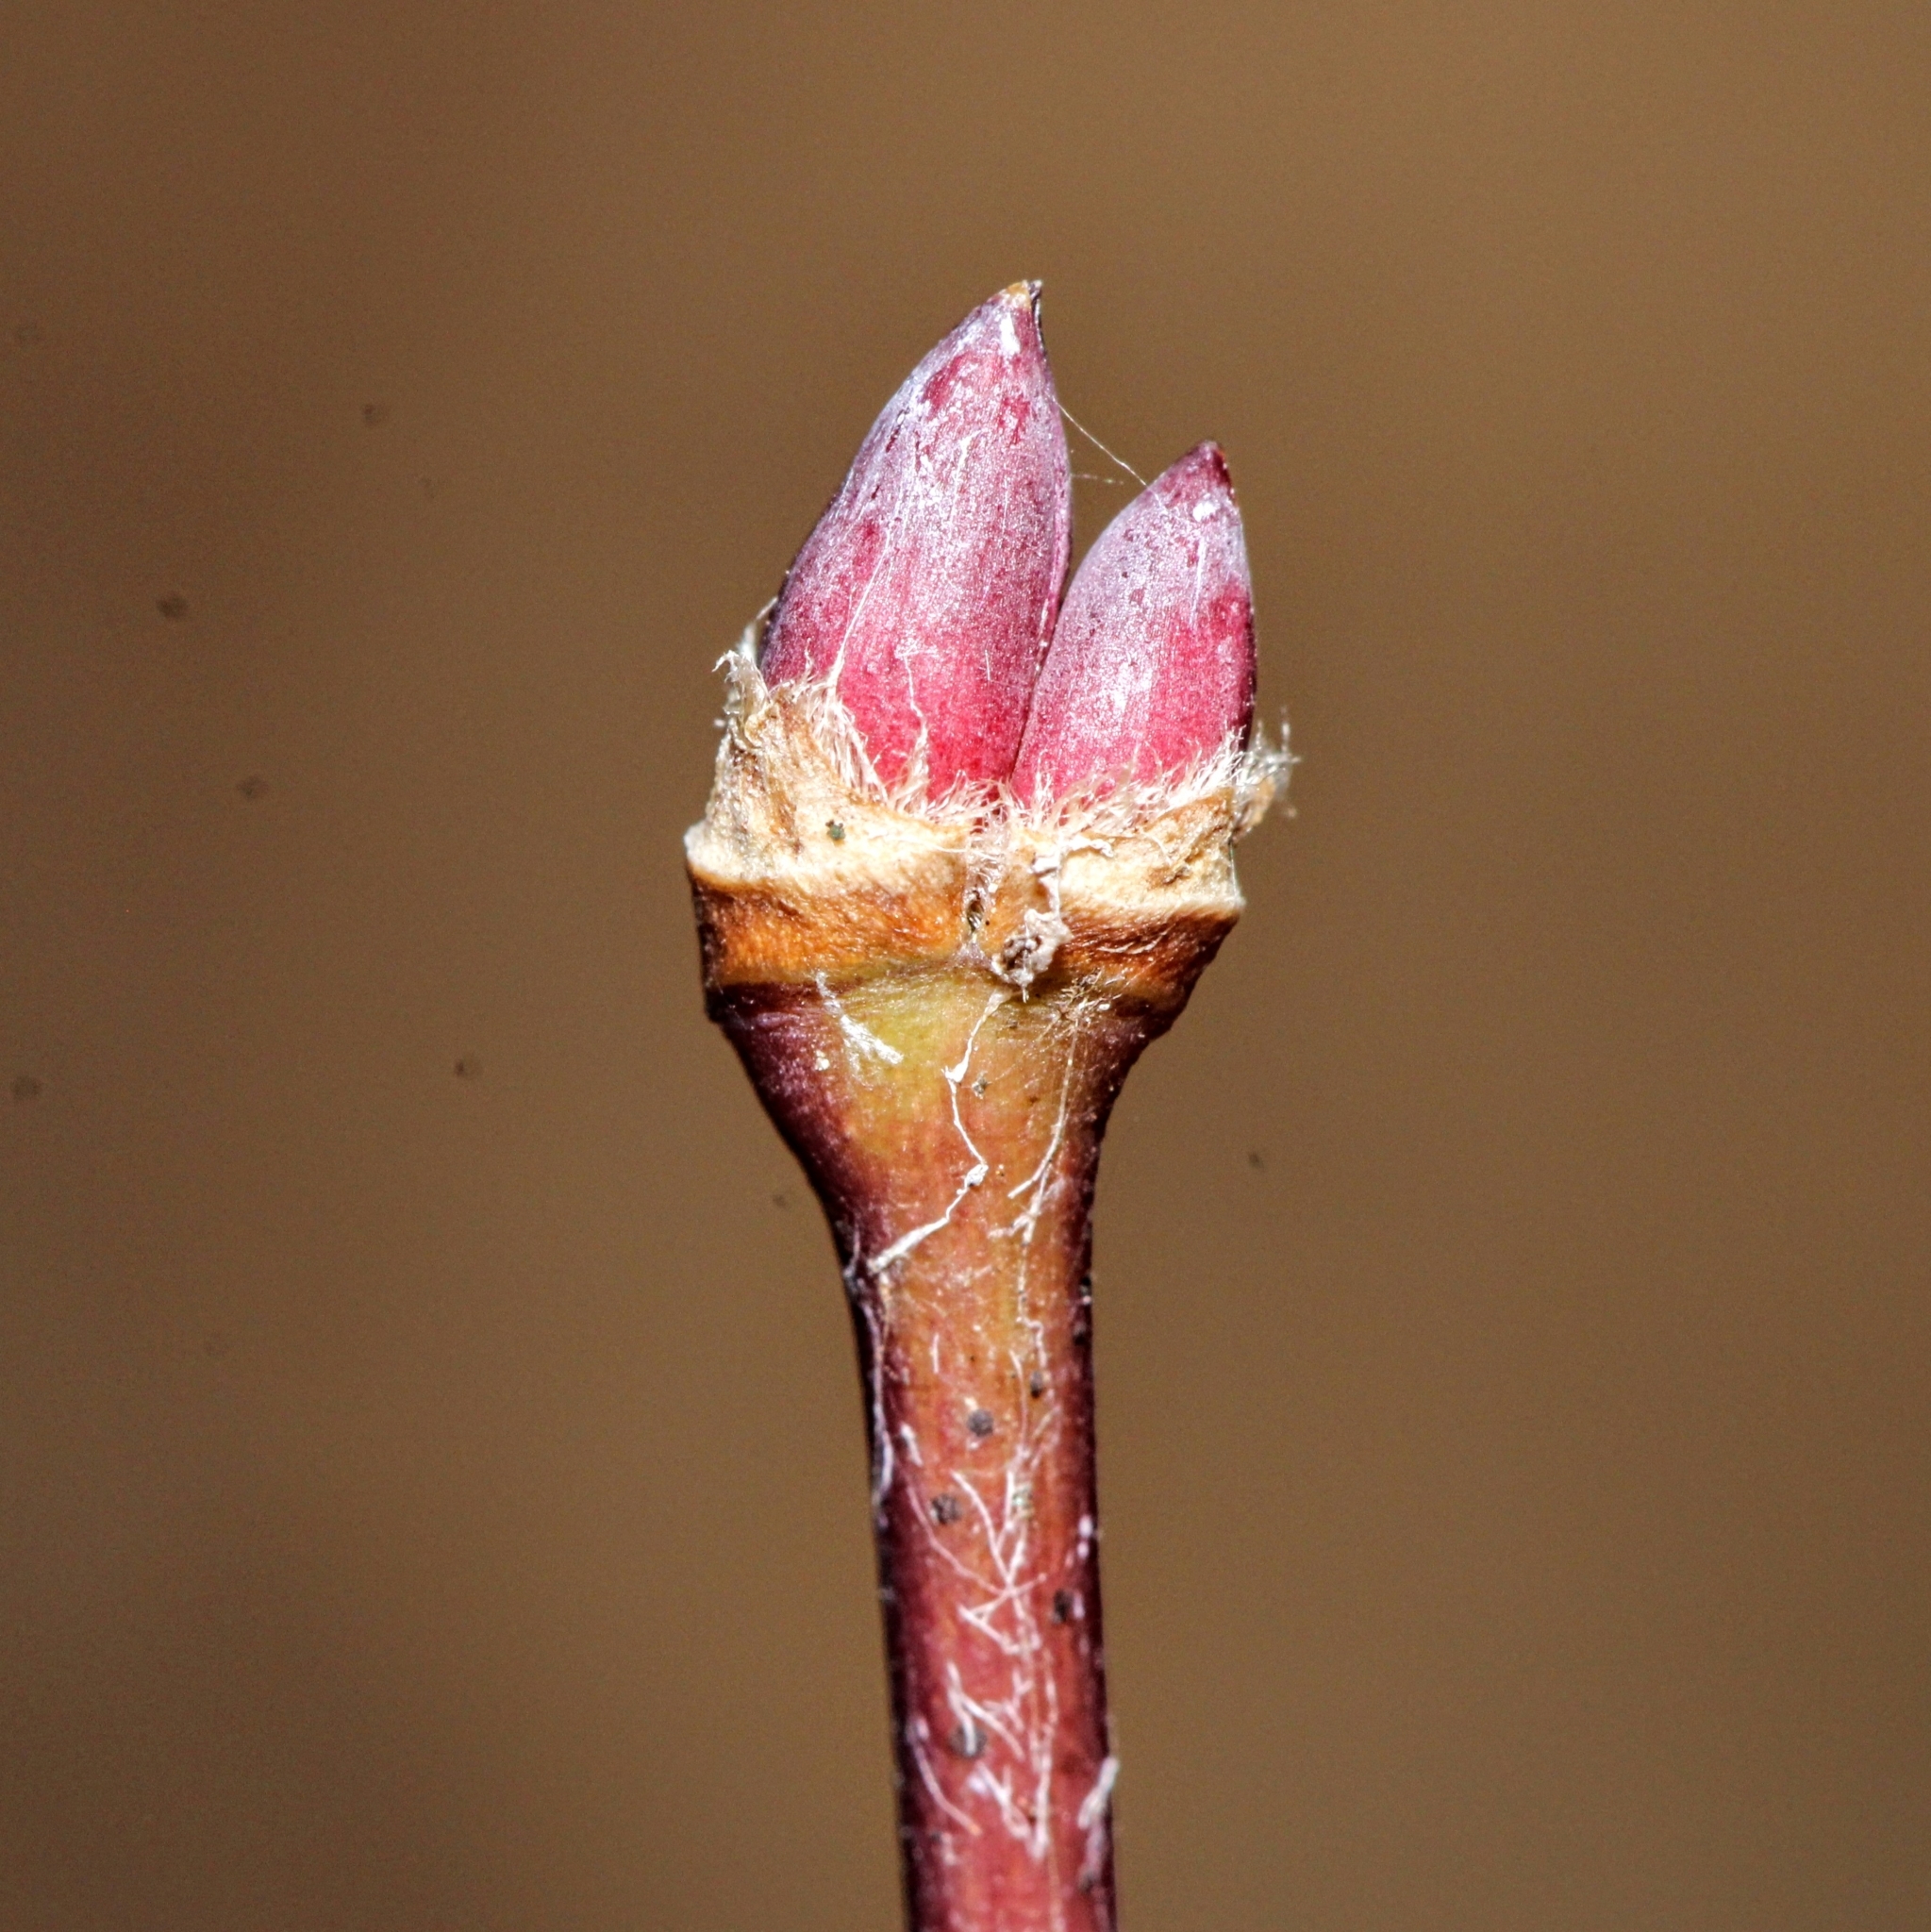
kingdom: Plantae
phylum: Tracheophyta
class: Magnoliopsida
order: Sapindales
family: Sapindaceae
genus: Acer
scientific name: Acer palmatum
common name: Japanese maple
